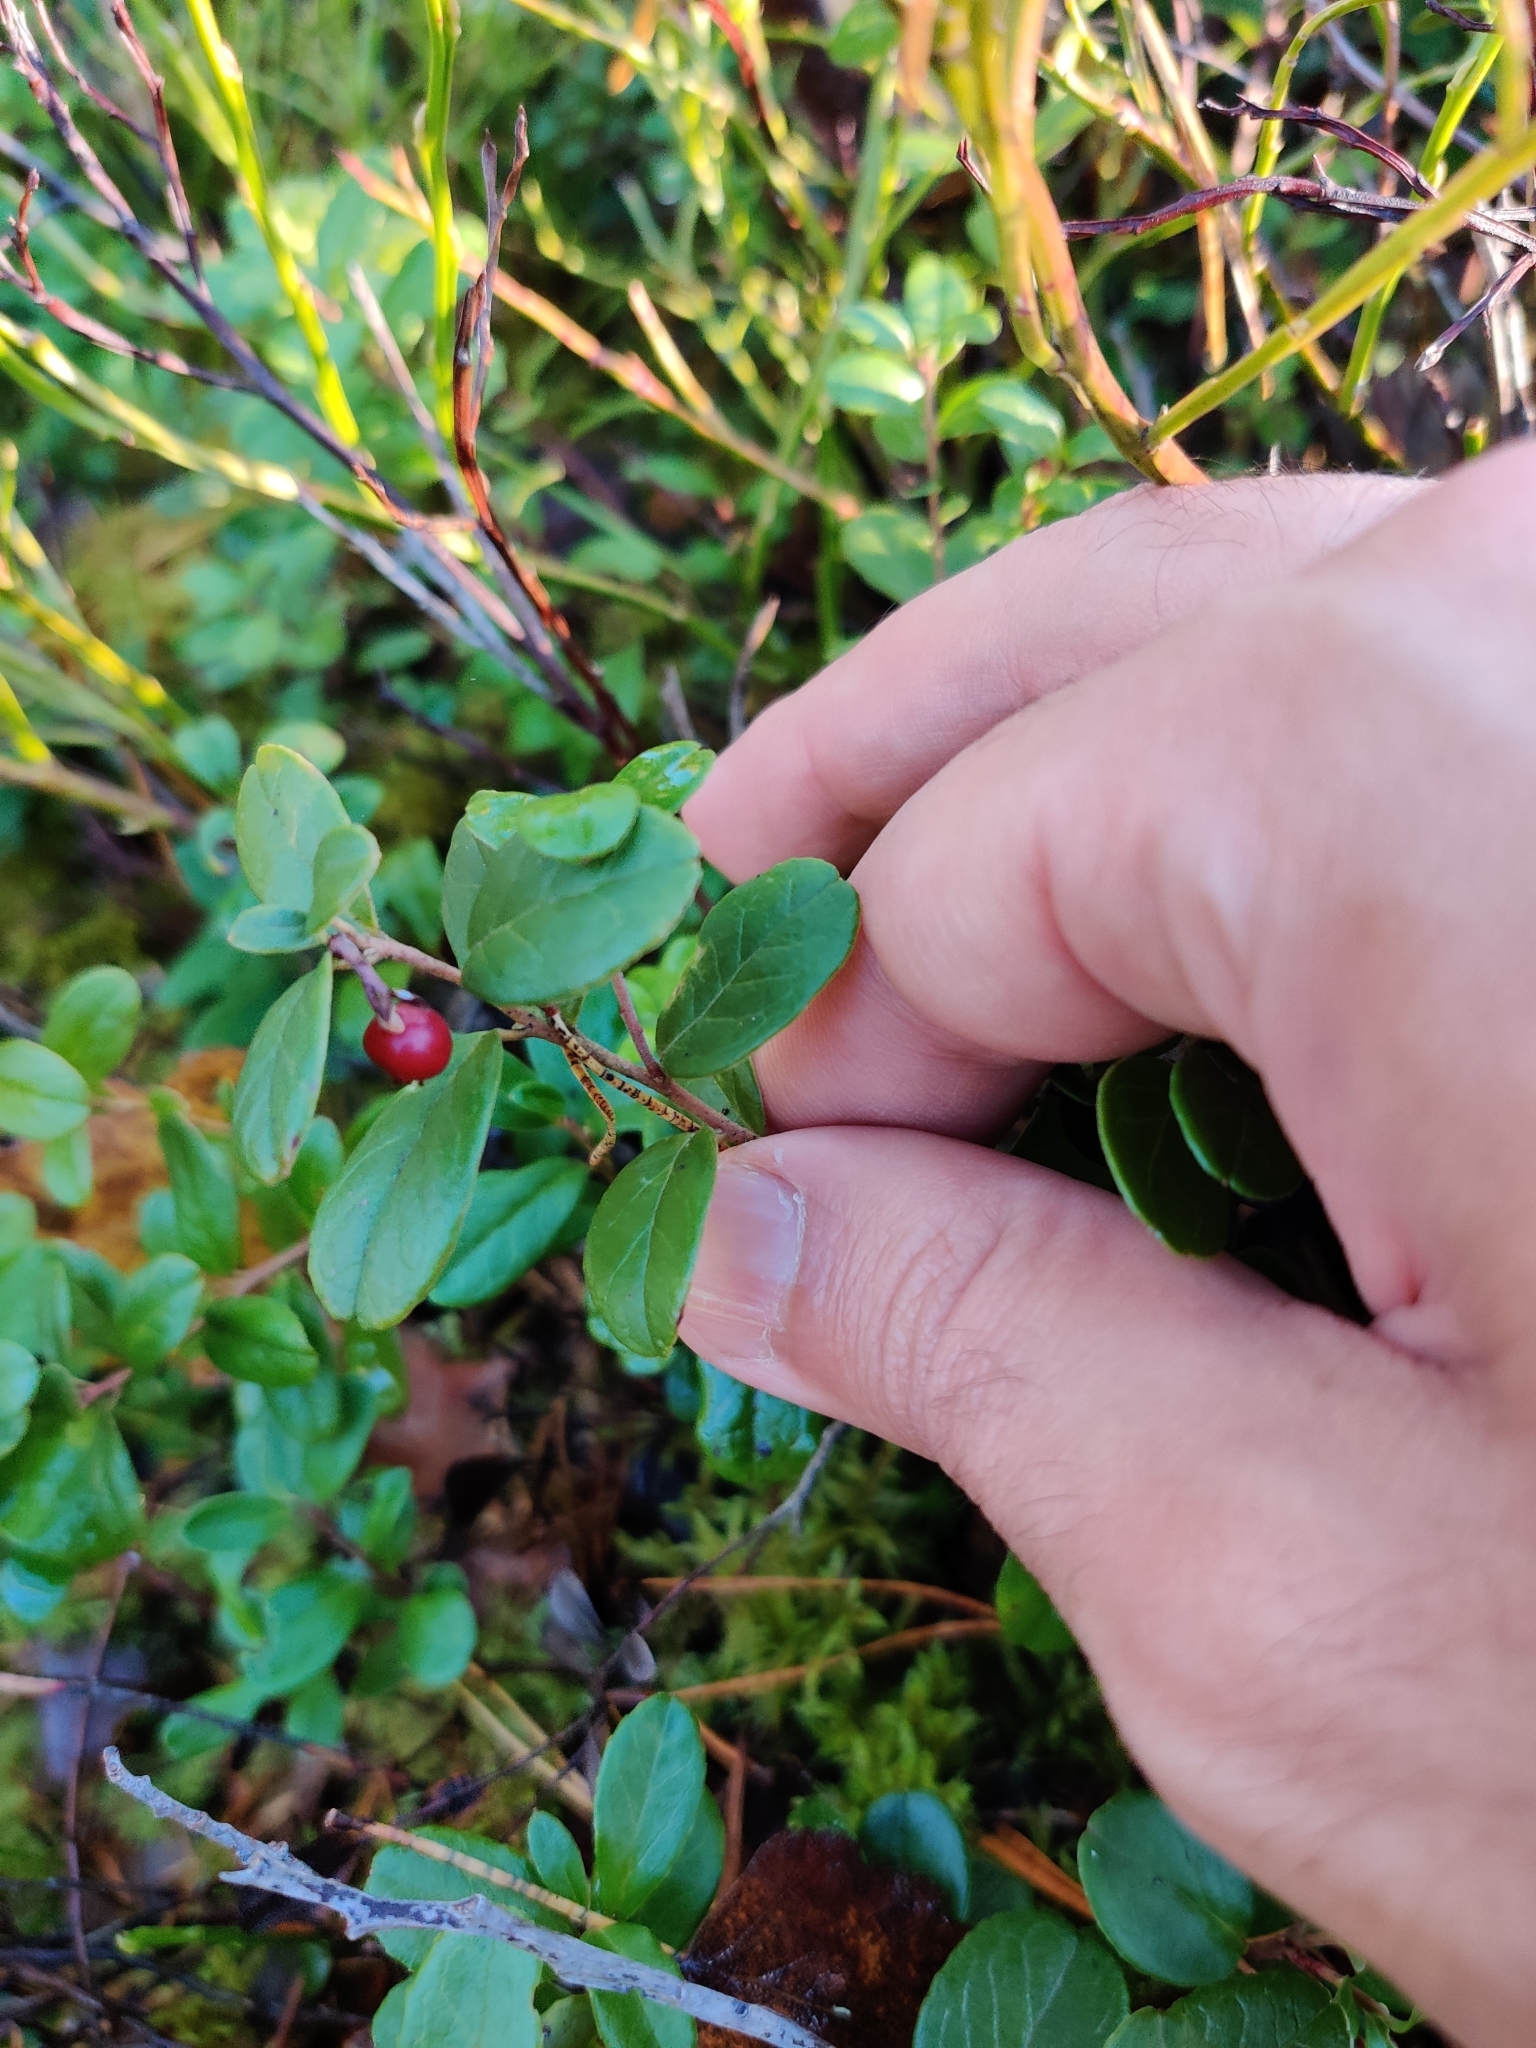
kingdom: Plantae
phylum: Tracheophyta
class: Magnoliopsida
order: Ericales
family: Ericaceae
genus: Vaccinium
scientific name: Vaccinium vitis-idaea
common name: Cowberry
